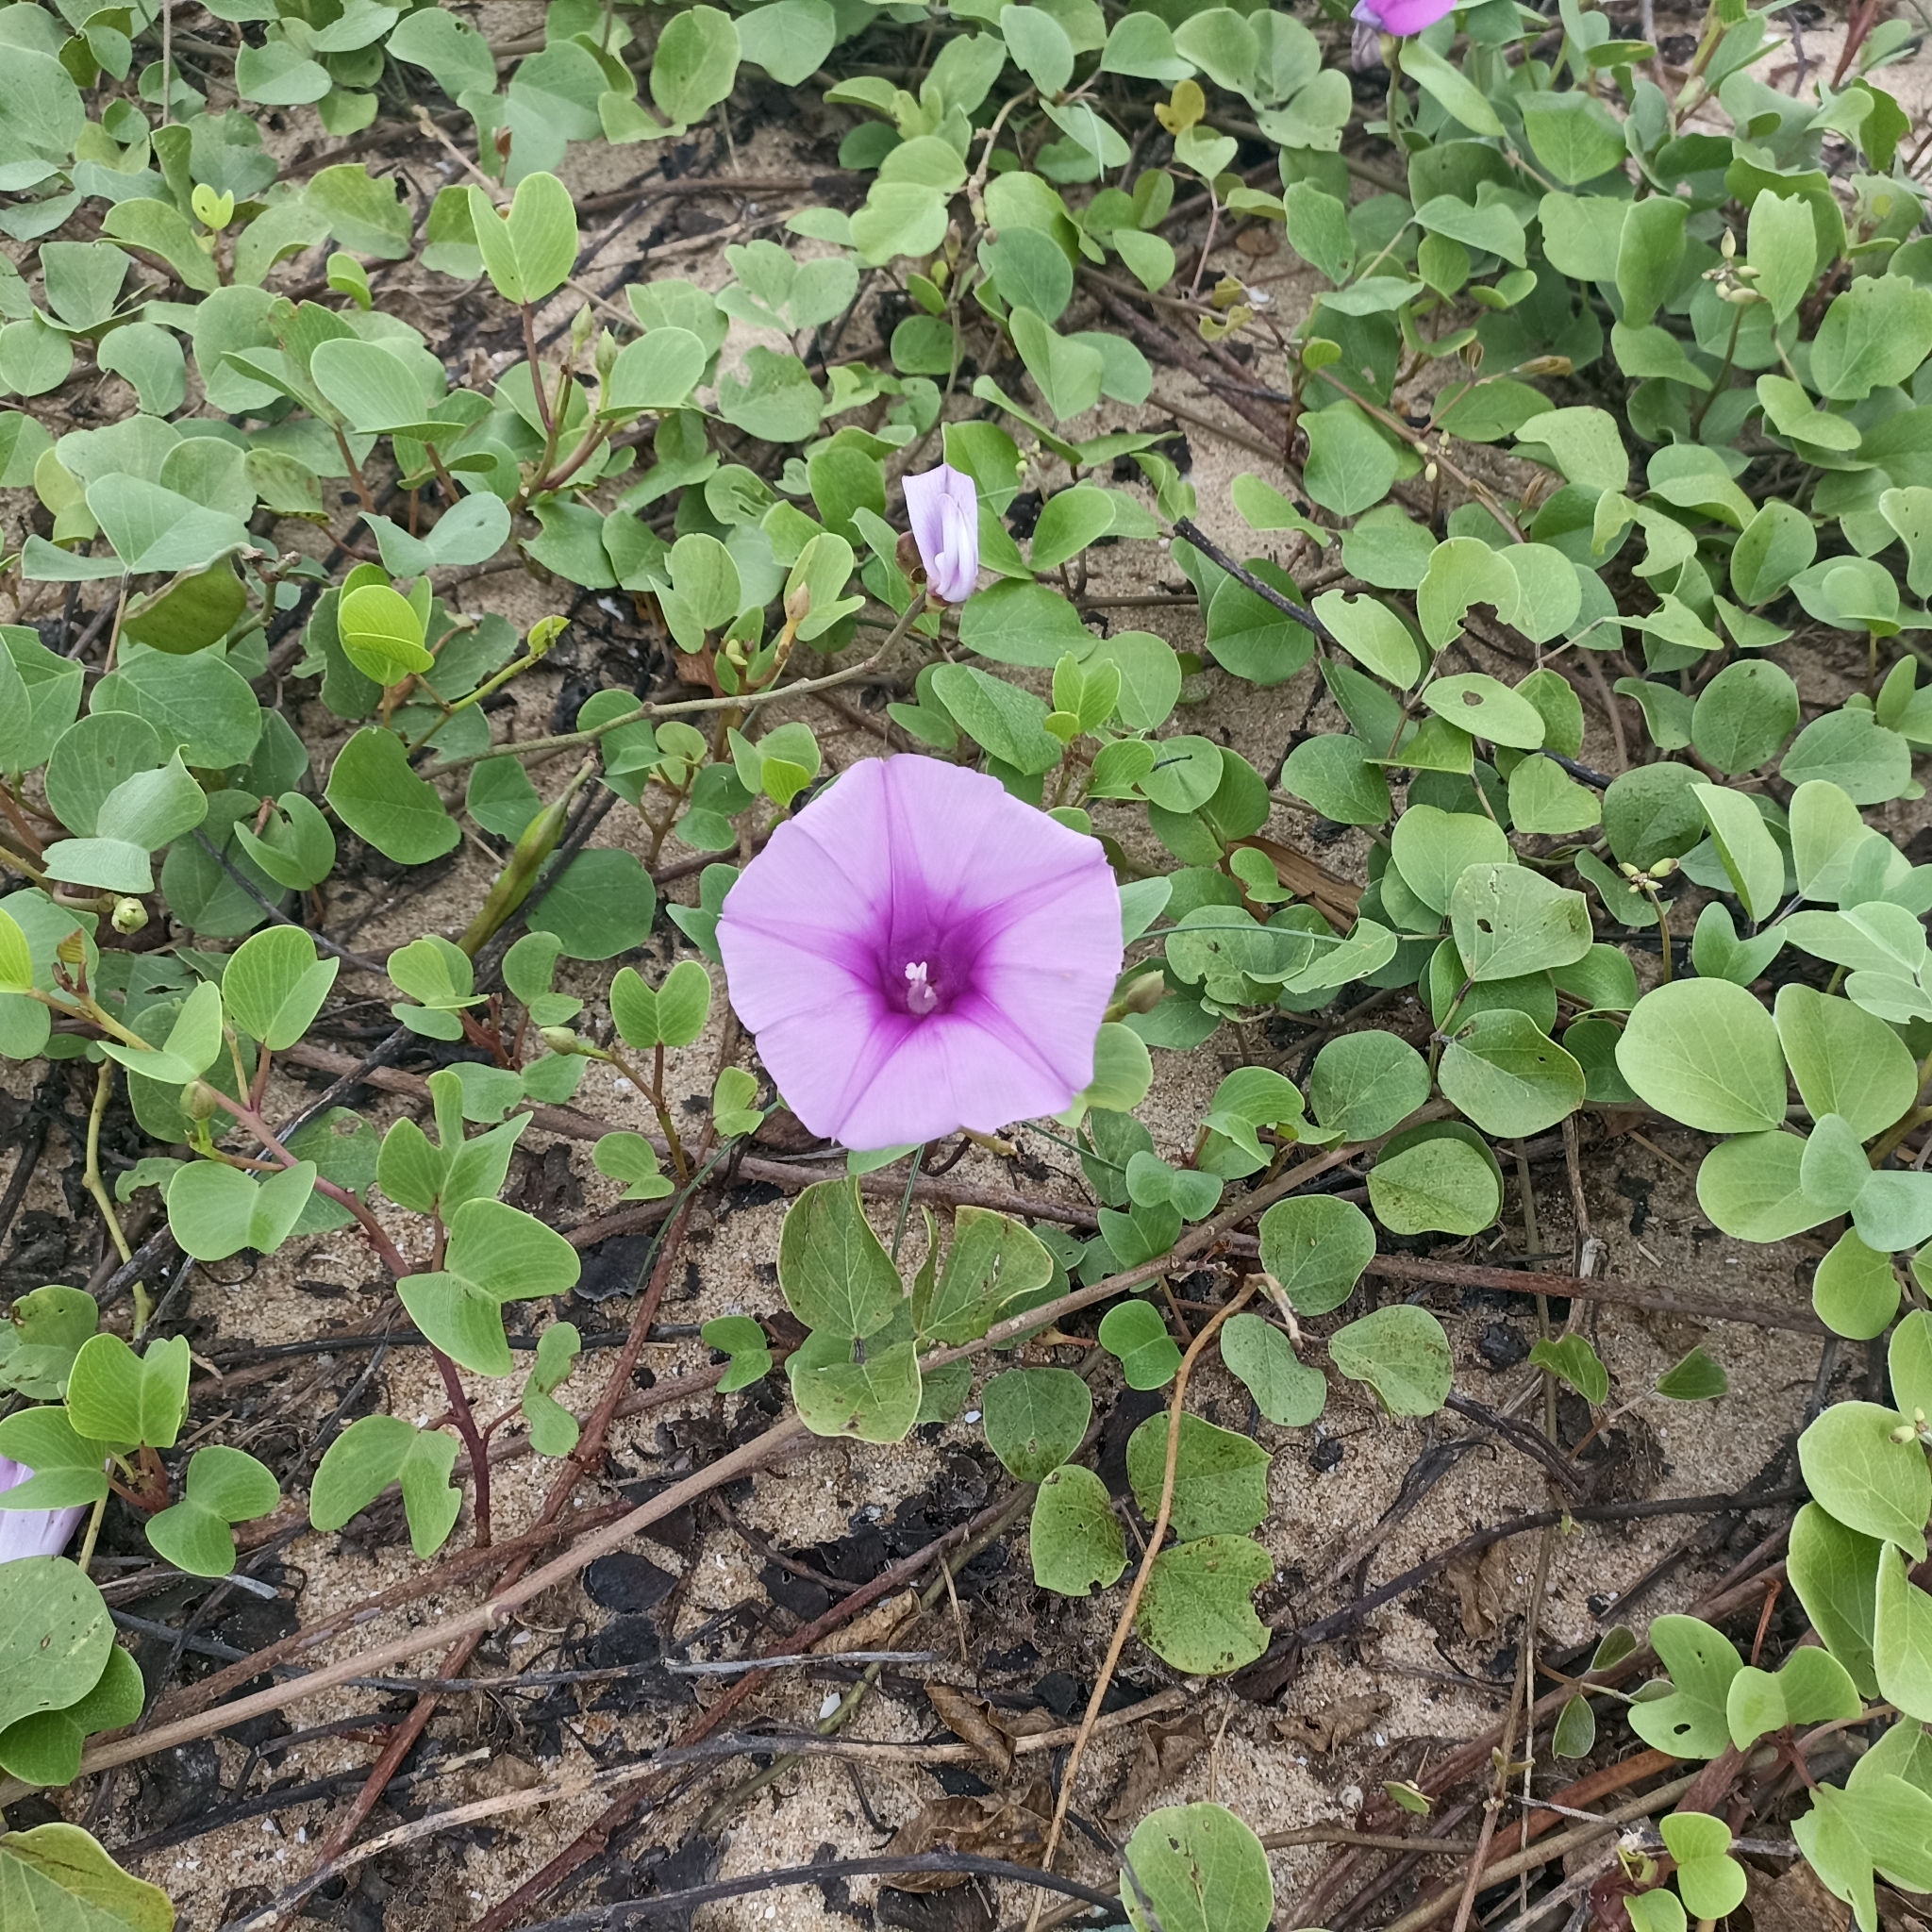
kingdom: Plantae
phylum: Tracheophyta
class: Magnoliopsida
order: Solanales
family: Convolvulaceae
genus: Ipomoea
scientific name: Ipomoea pes-caprae
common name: Beach morning glory
